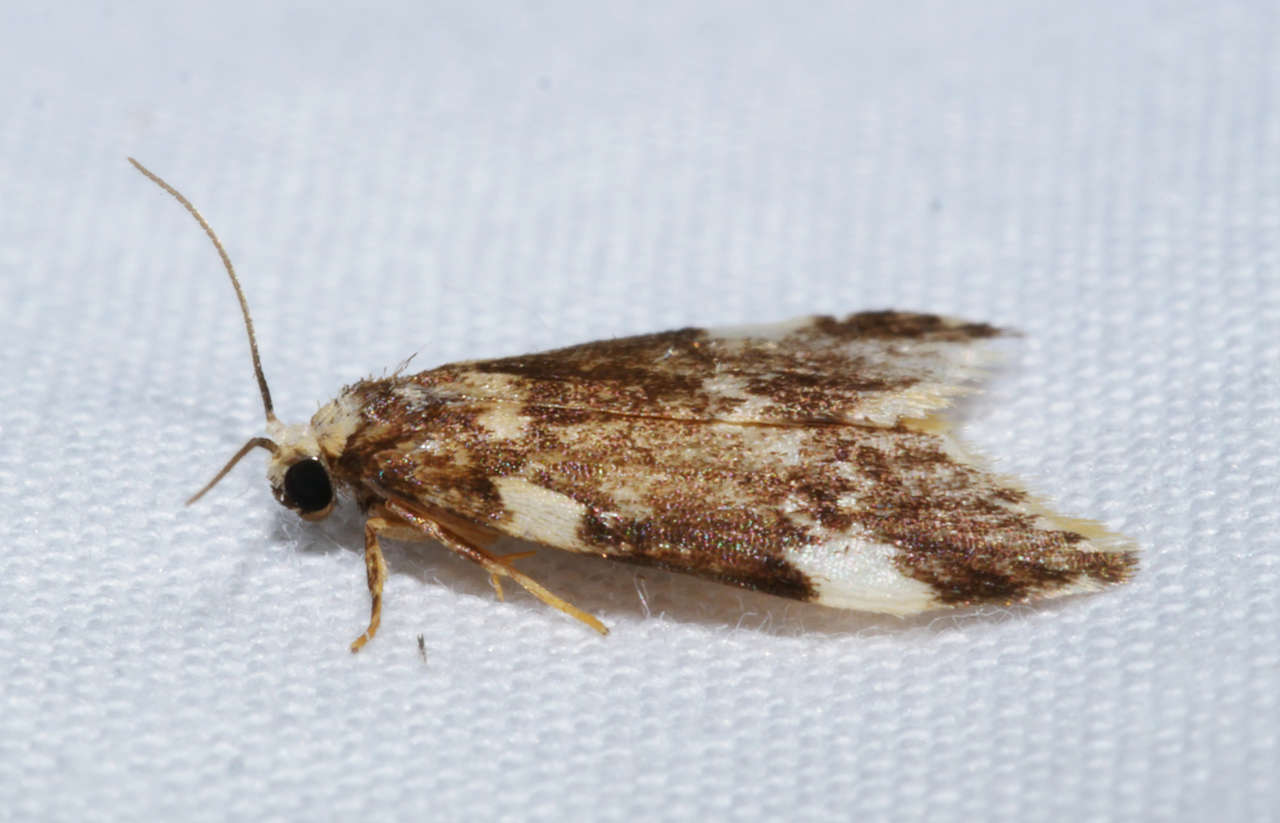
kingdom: Animalia
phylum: Arthropoda
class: Insecta
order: Lepidoptera
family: Erebidae
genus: Halone
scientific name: Halone pteridaula
